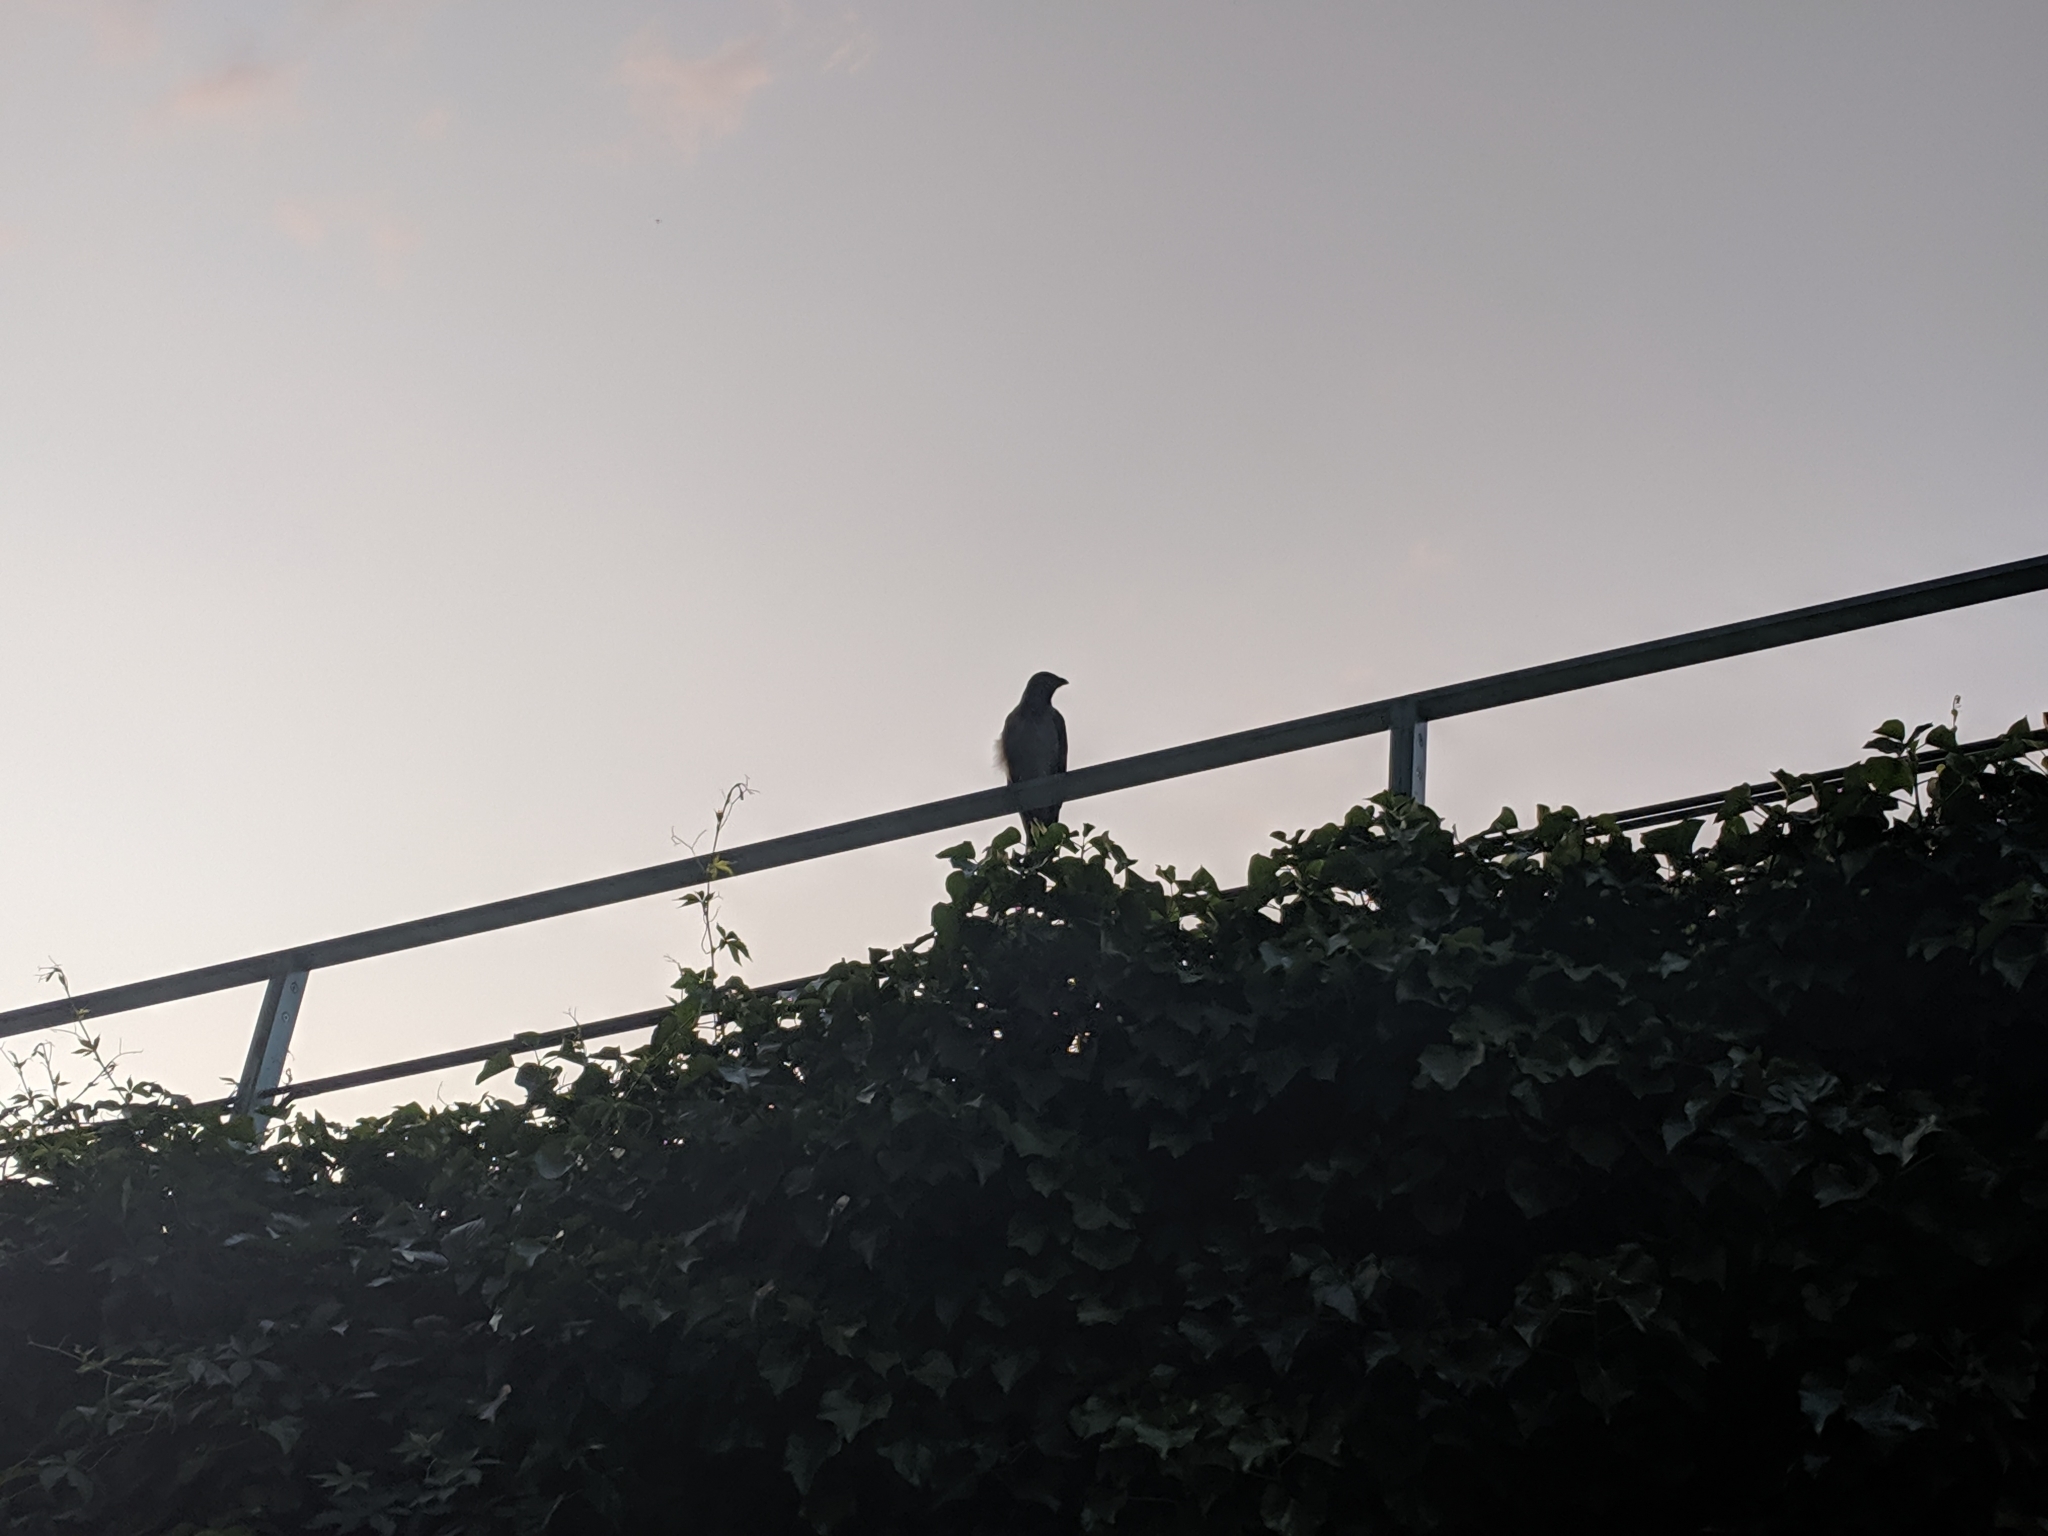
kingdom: Animalia
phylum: Chordata
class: Aves
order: Passeriformes
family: Corvidae
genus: Corvus
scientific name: Corvus cornix
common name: Hooded crow
